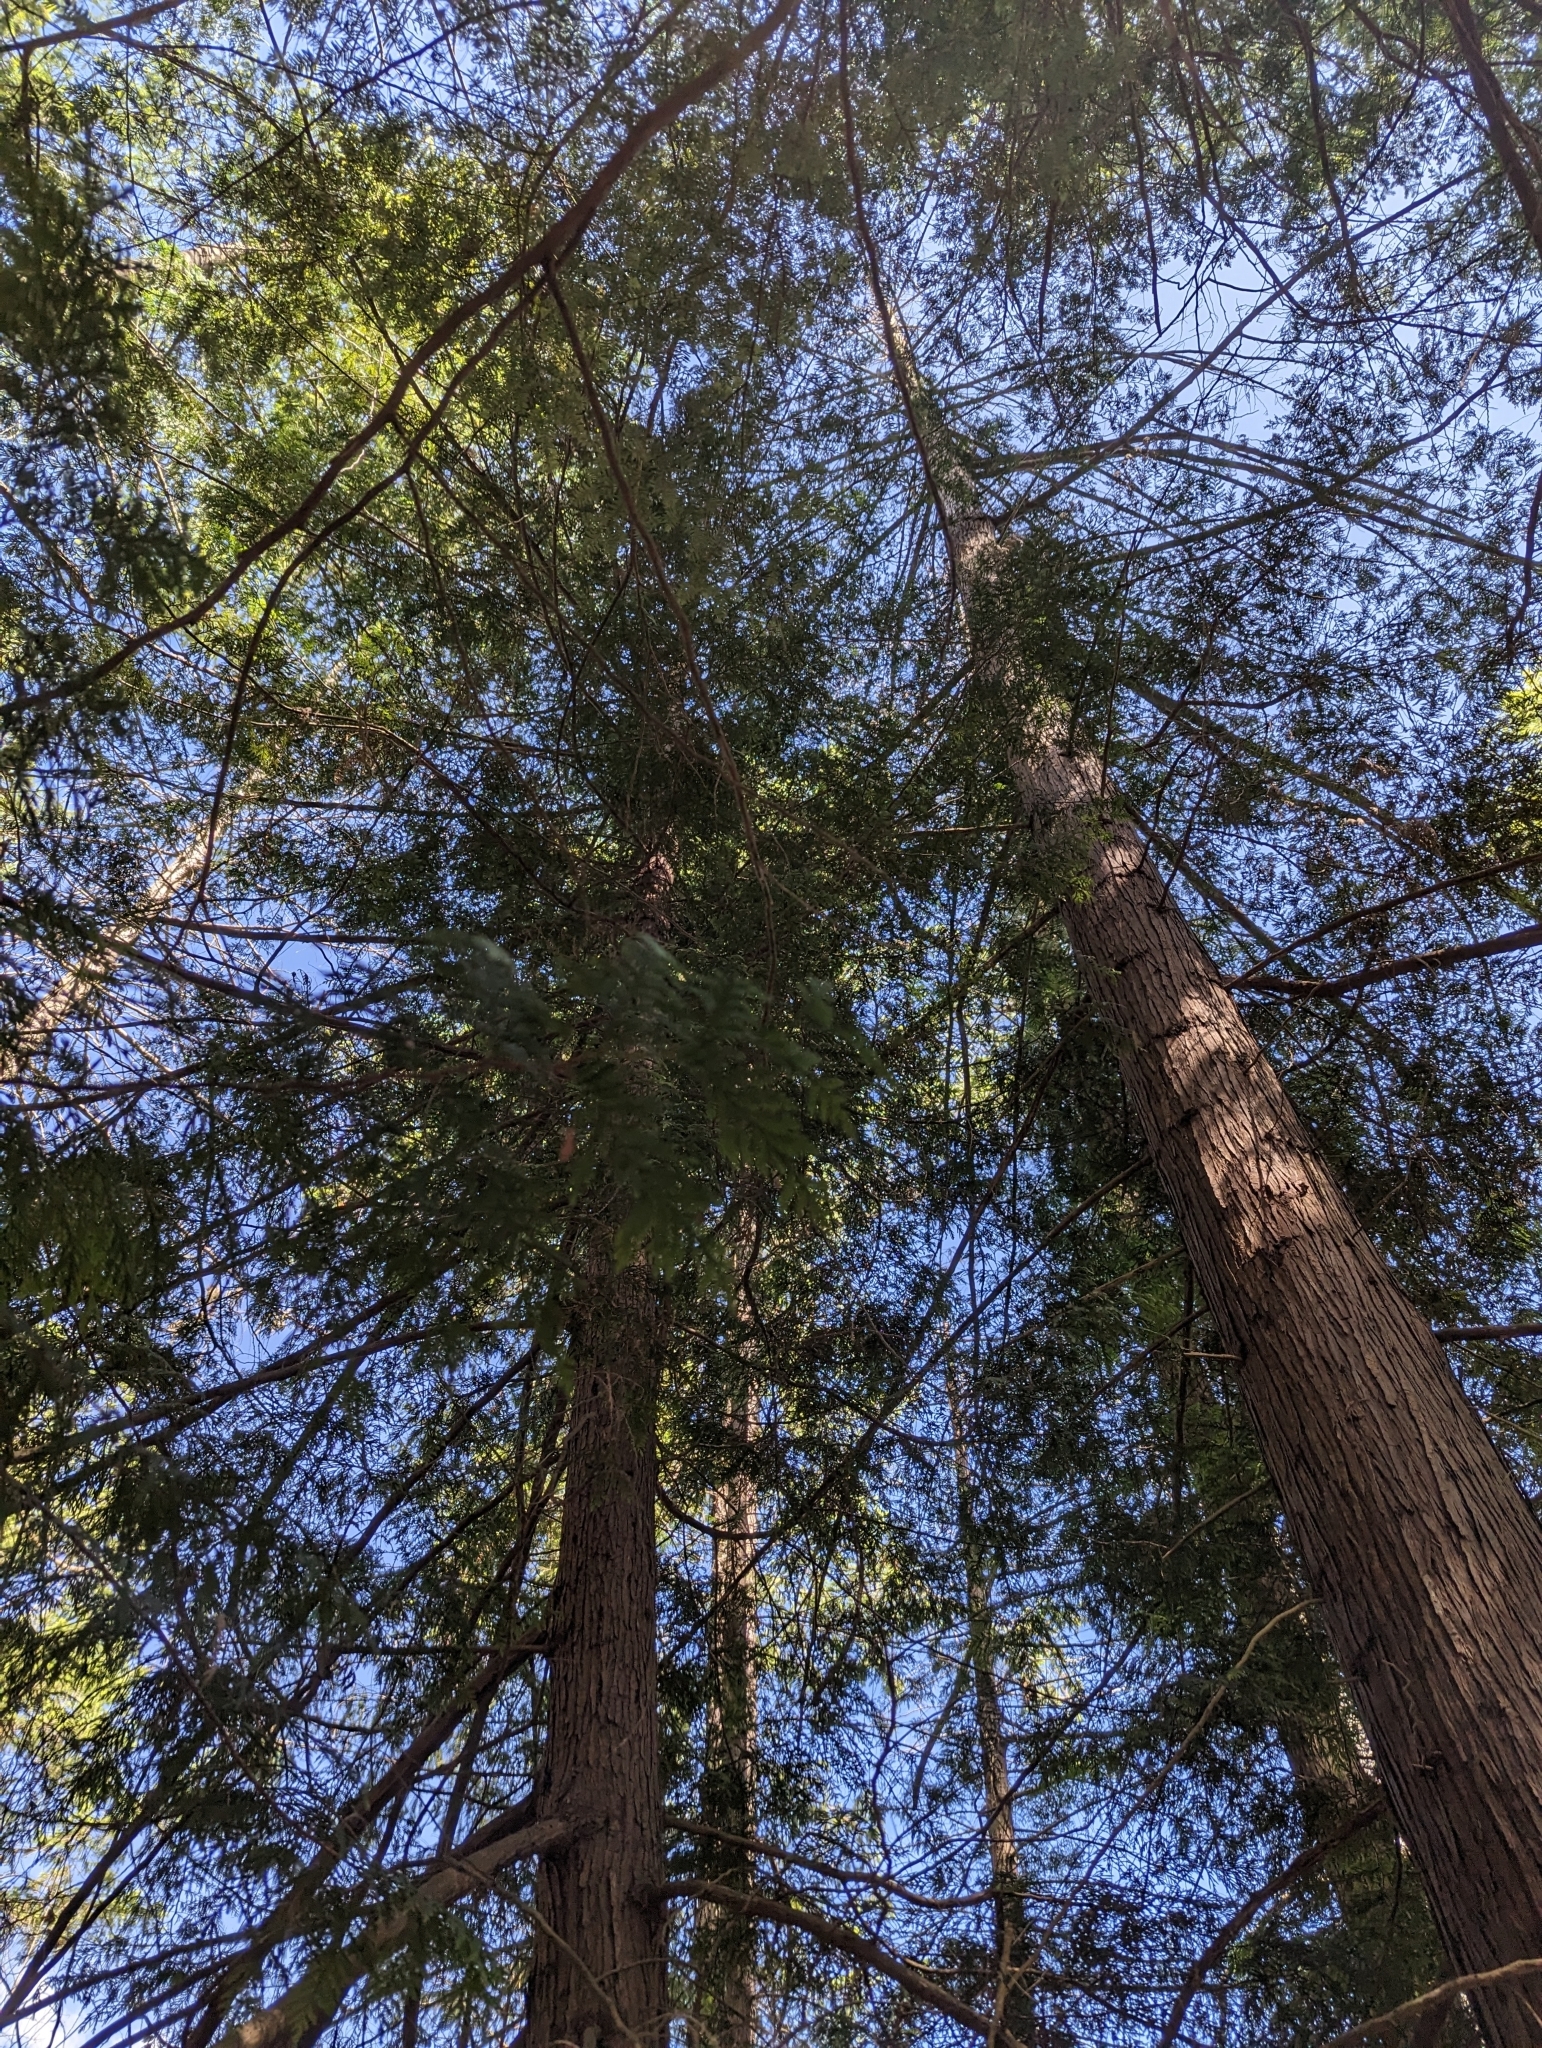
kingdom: Plantae
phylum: Tracheophyta
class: Pinopsida
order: Pinales
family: Cupressaceae
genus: Thuja
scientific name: Thuja plicata
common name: Western red-cedar
